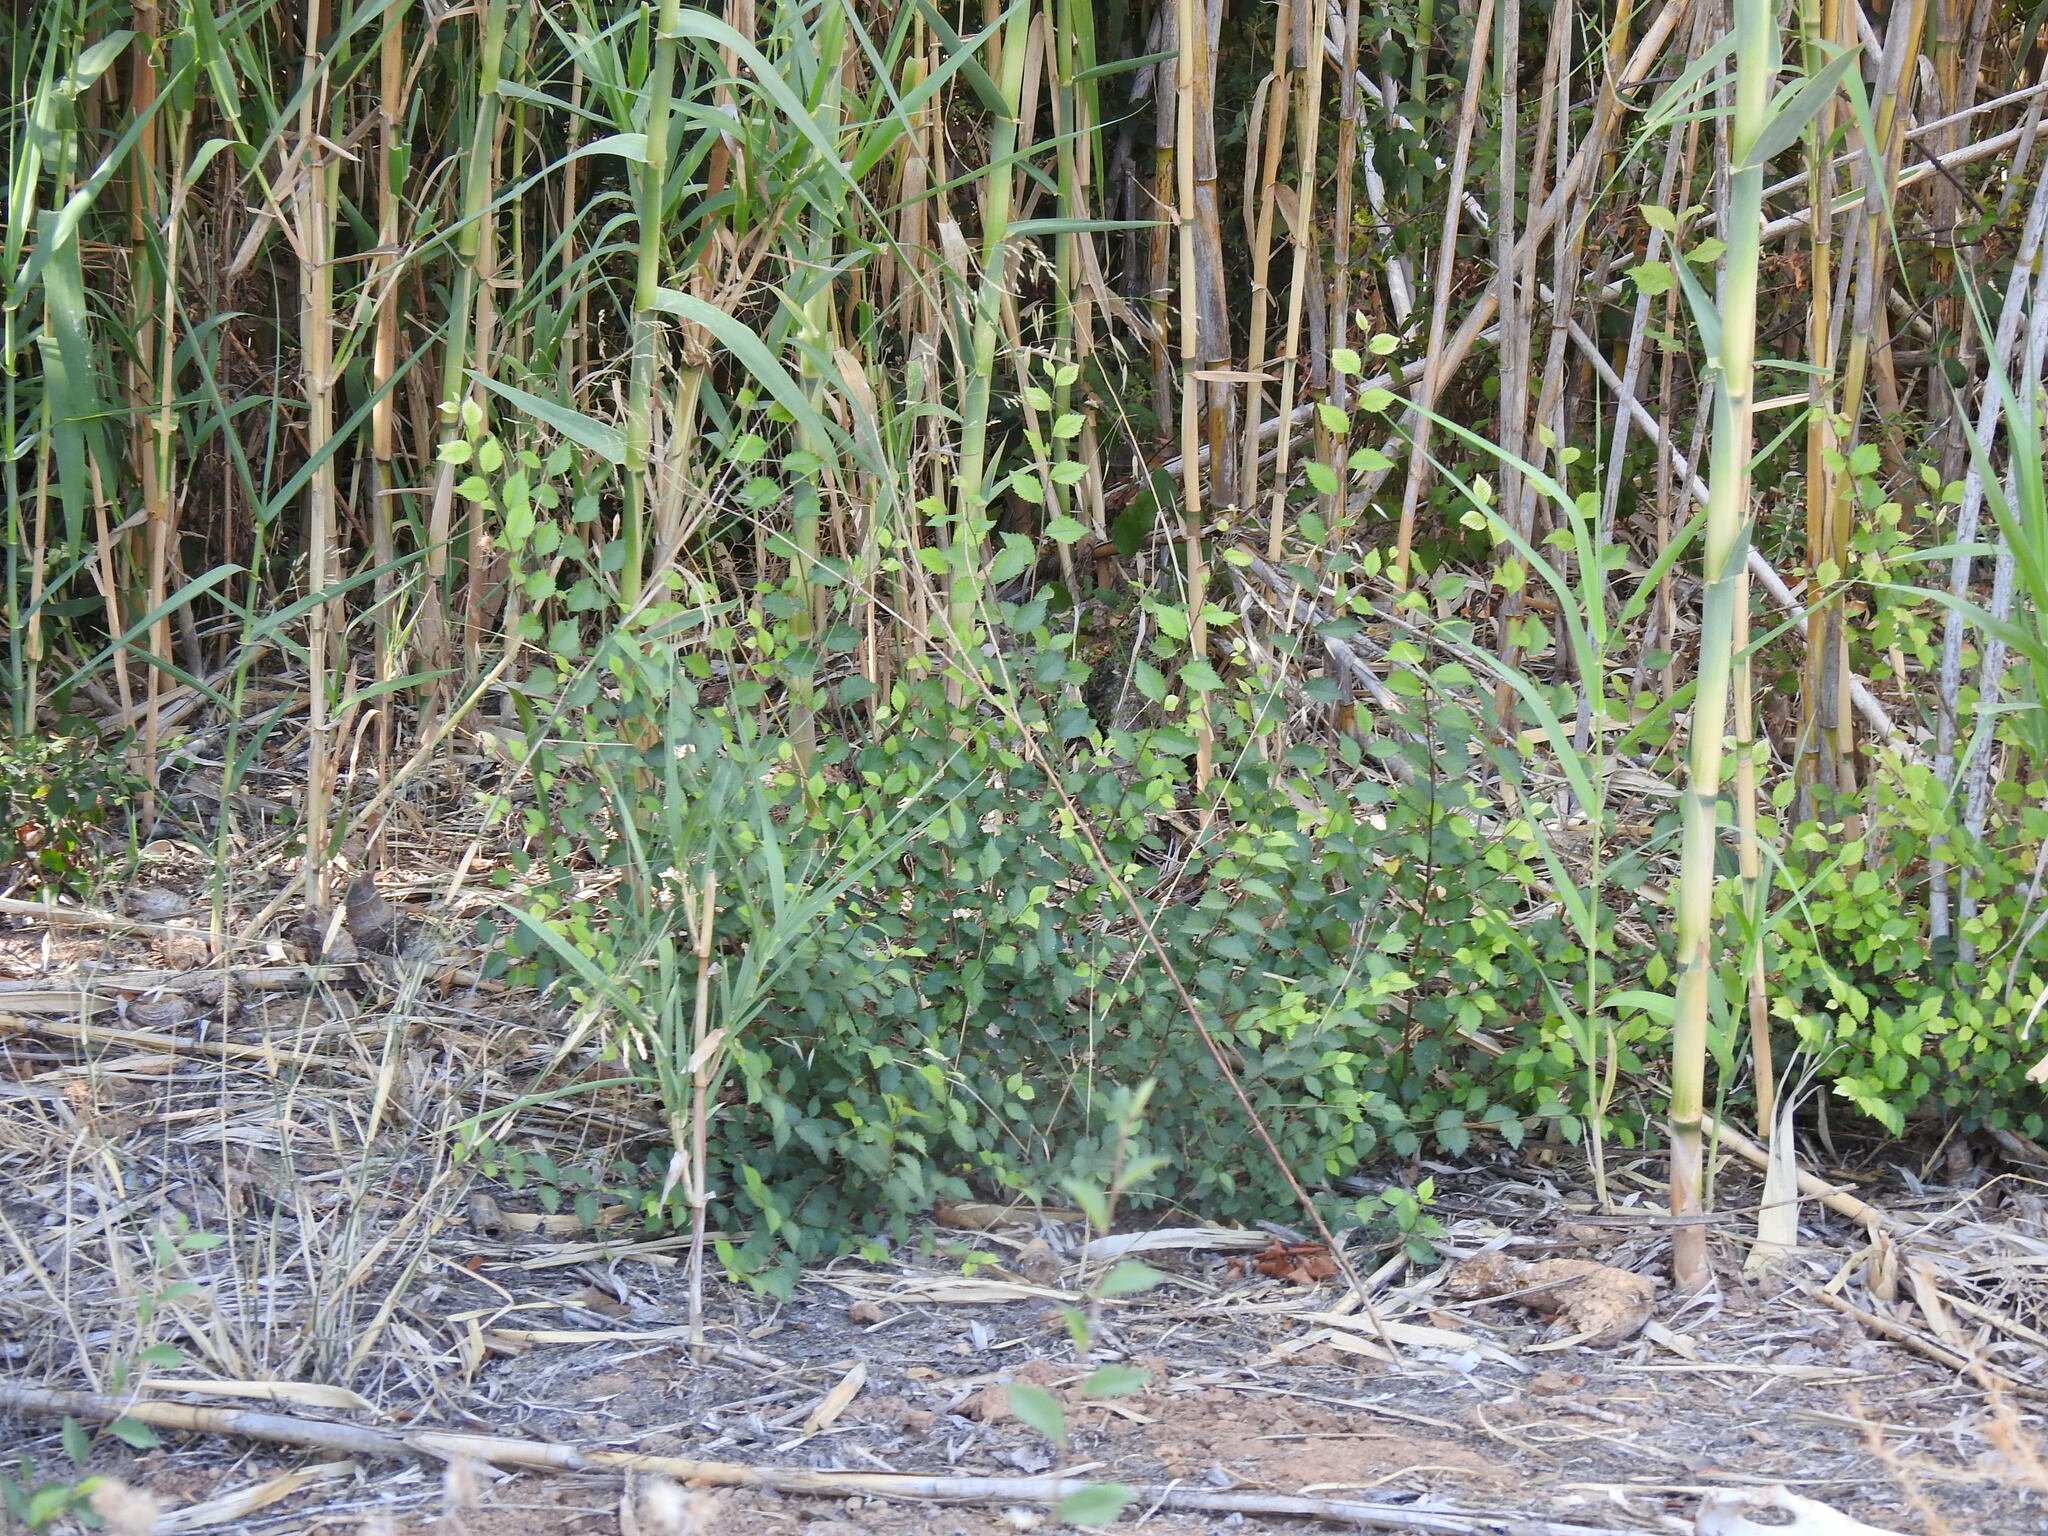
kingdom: Plantae
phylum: Tracheophyta
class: Magnoliopsida
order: Rosales
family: Ulmaceae
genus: Ulmus
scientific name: Ulmus minor
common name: Small-leaved elm
